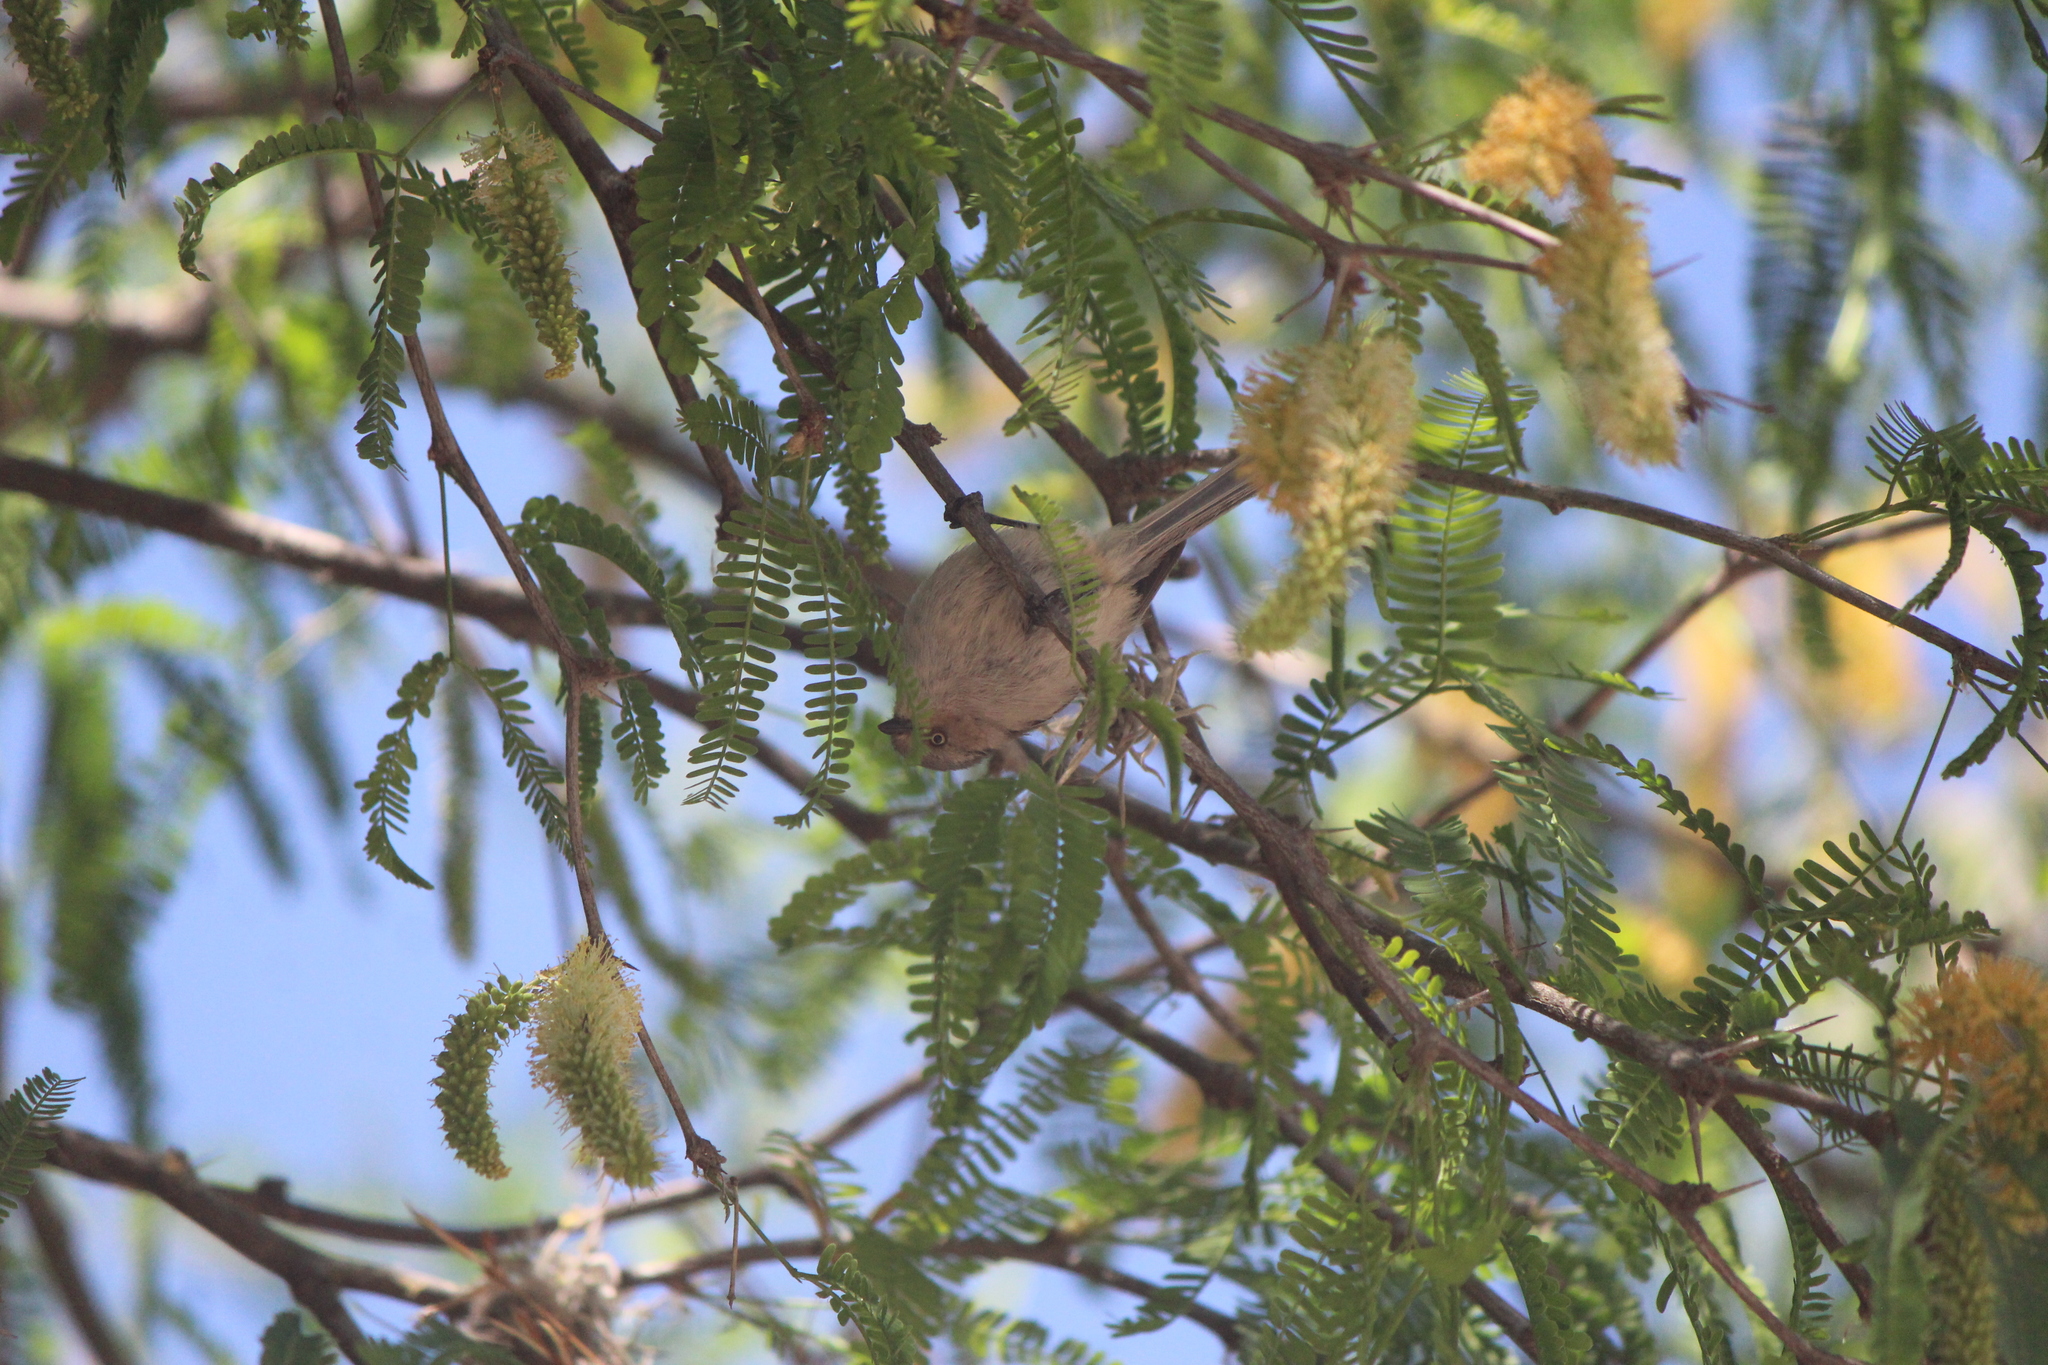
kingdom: Animalia
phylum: Chordata
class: Aves
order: Passeriformes
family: Aegithalidae
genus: Psaltriparus
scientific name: Psaltriparus minimus
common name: American bushtit
